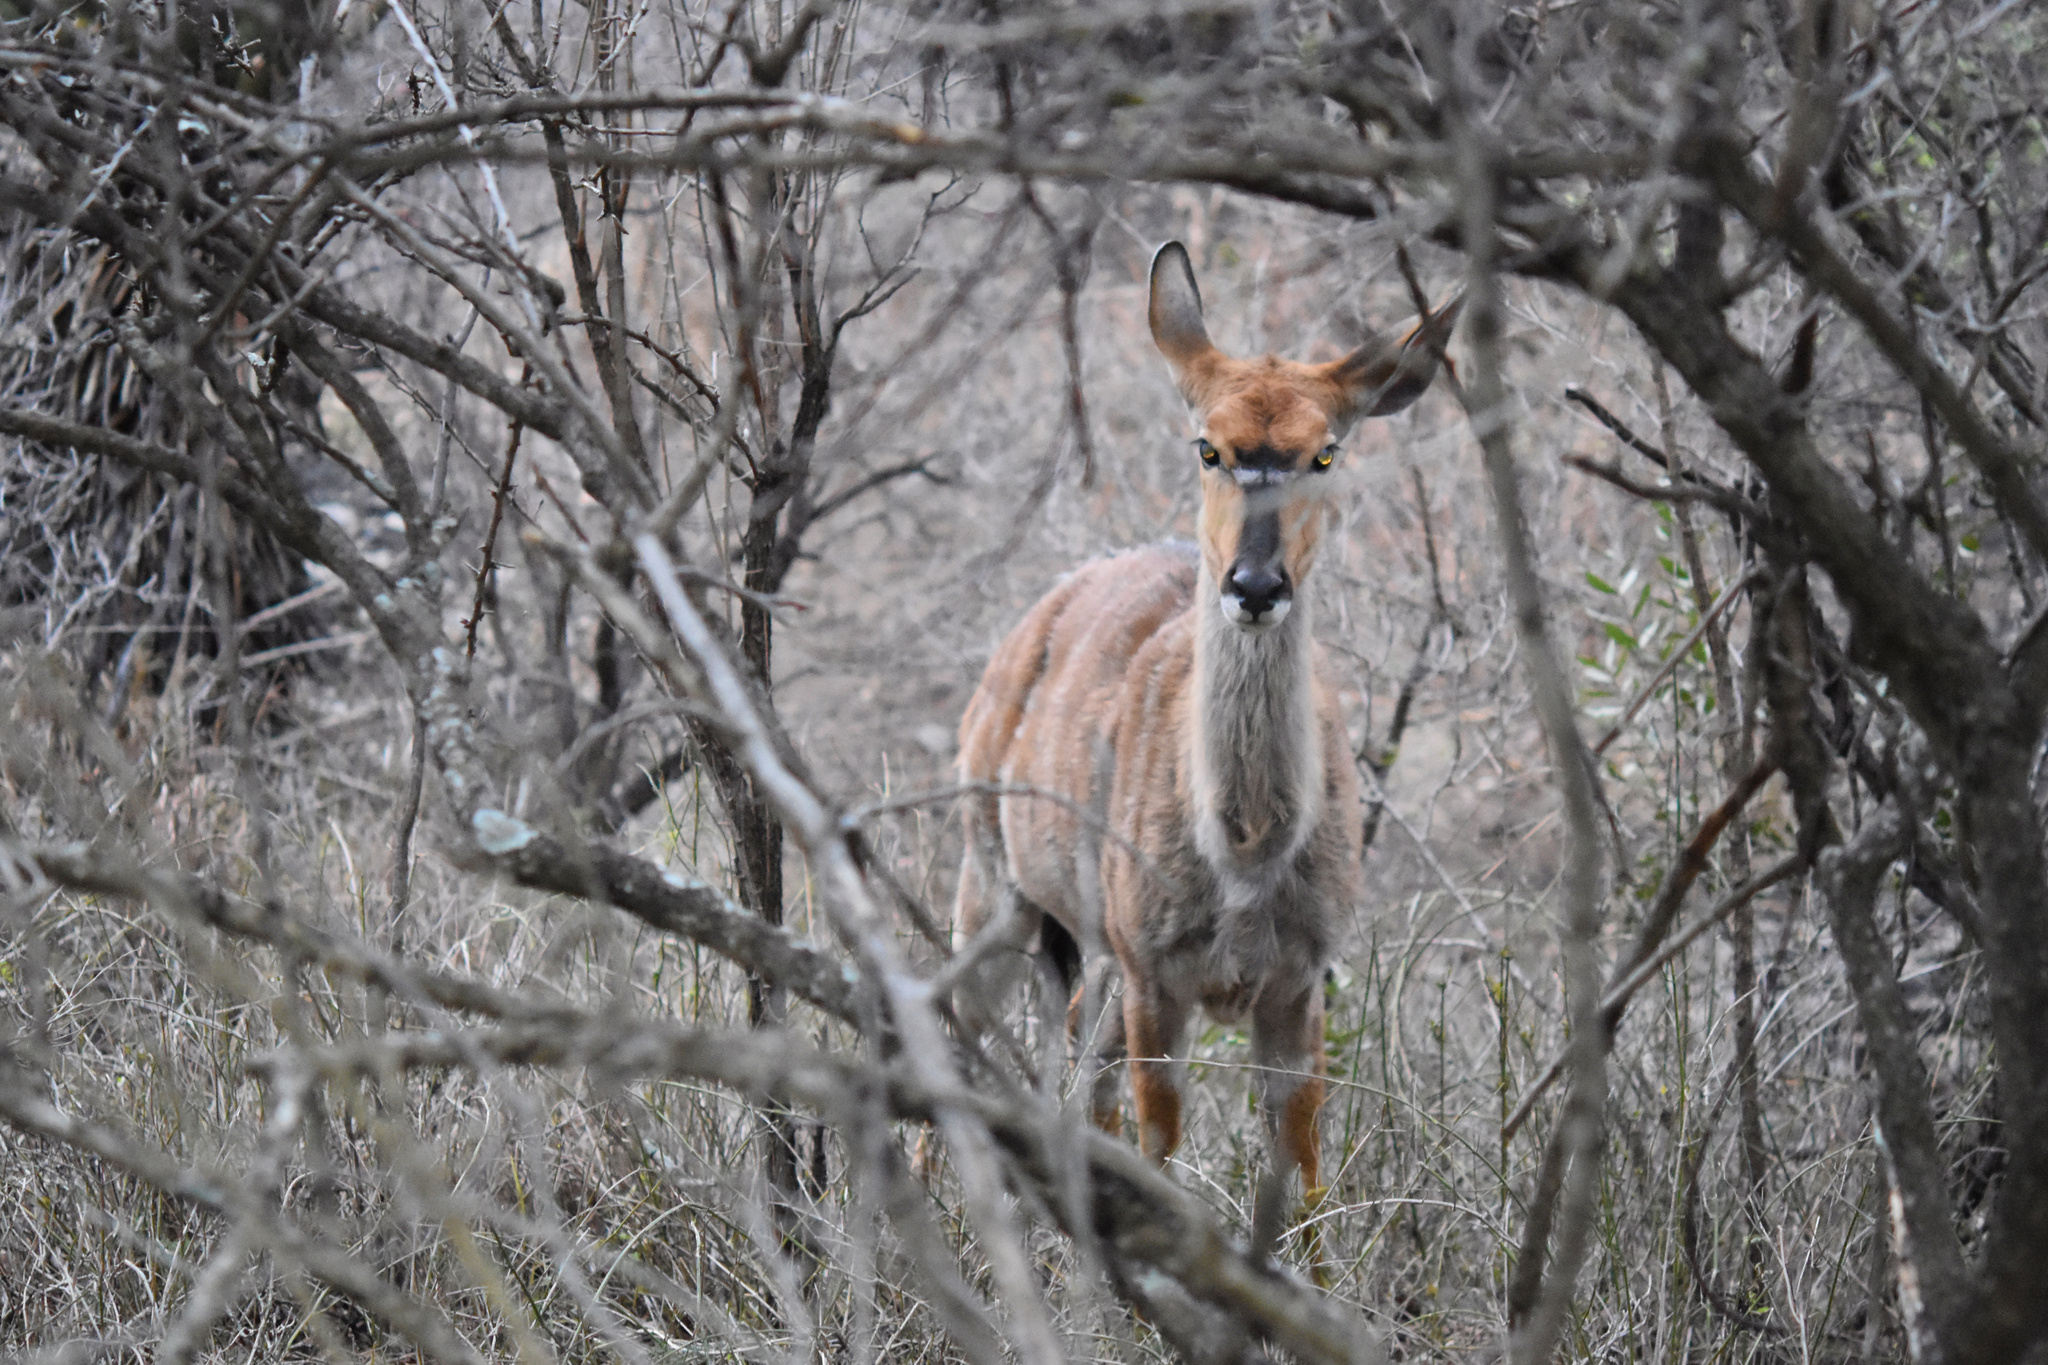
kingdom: Animalia
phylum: Chordata
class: Mammalia
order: Artiodactyla
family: Bovidae
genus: Tragelaphus
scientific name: Tragelaphus angasii
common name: Nyala
